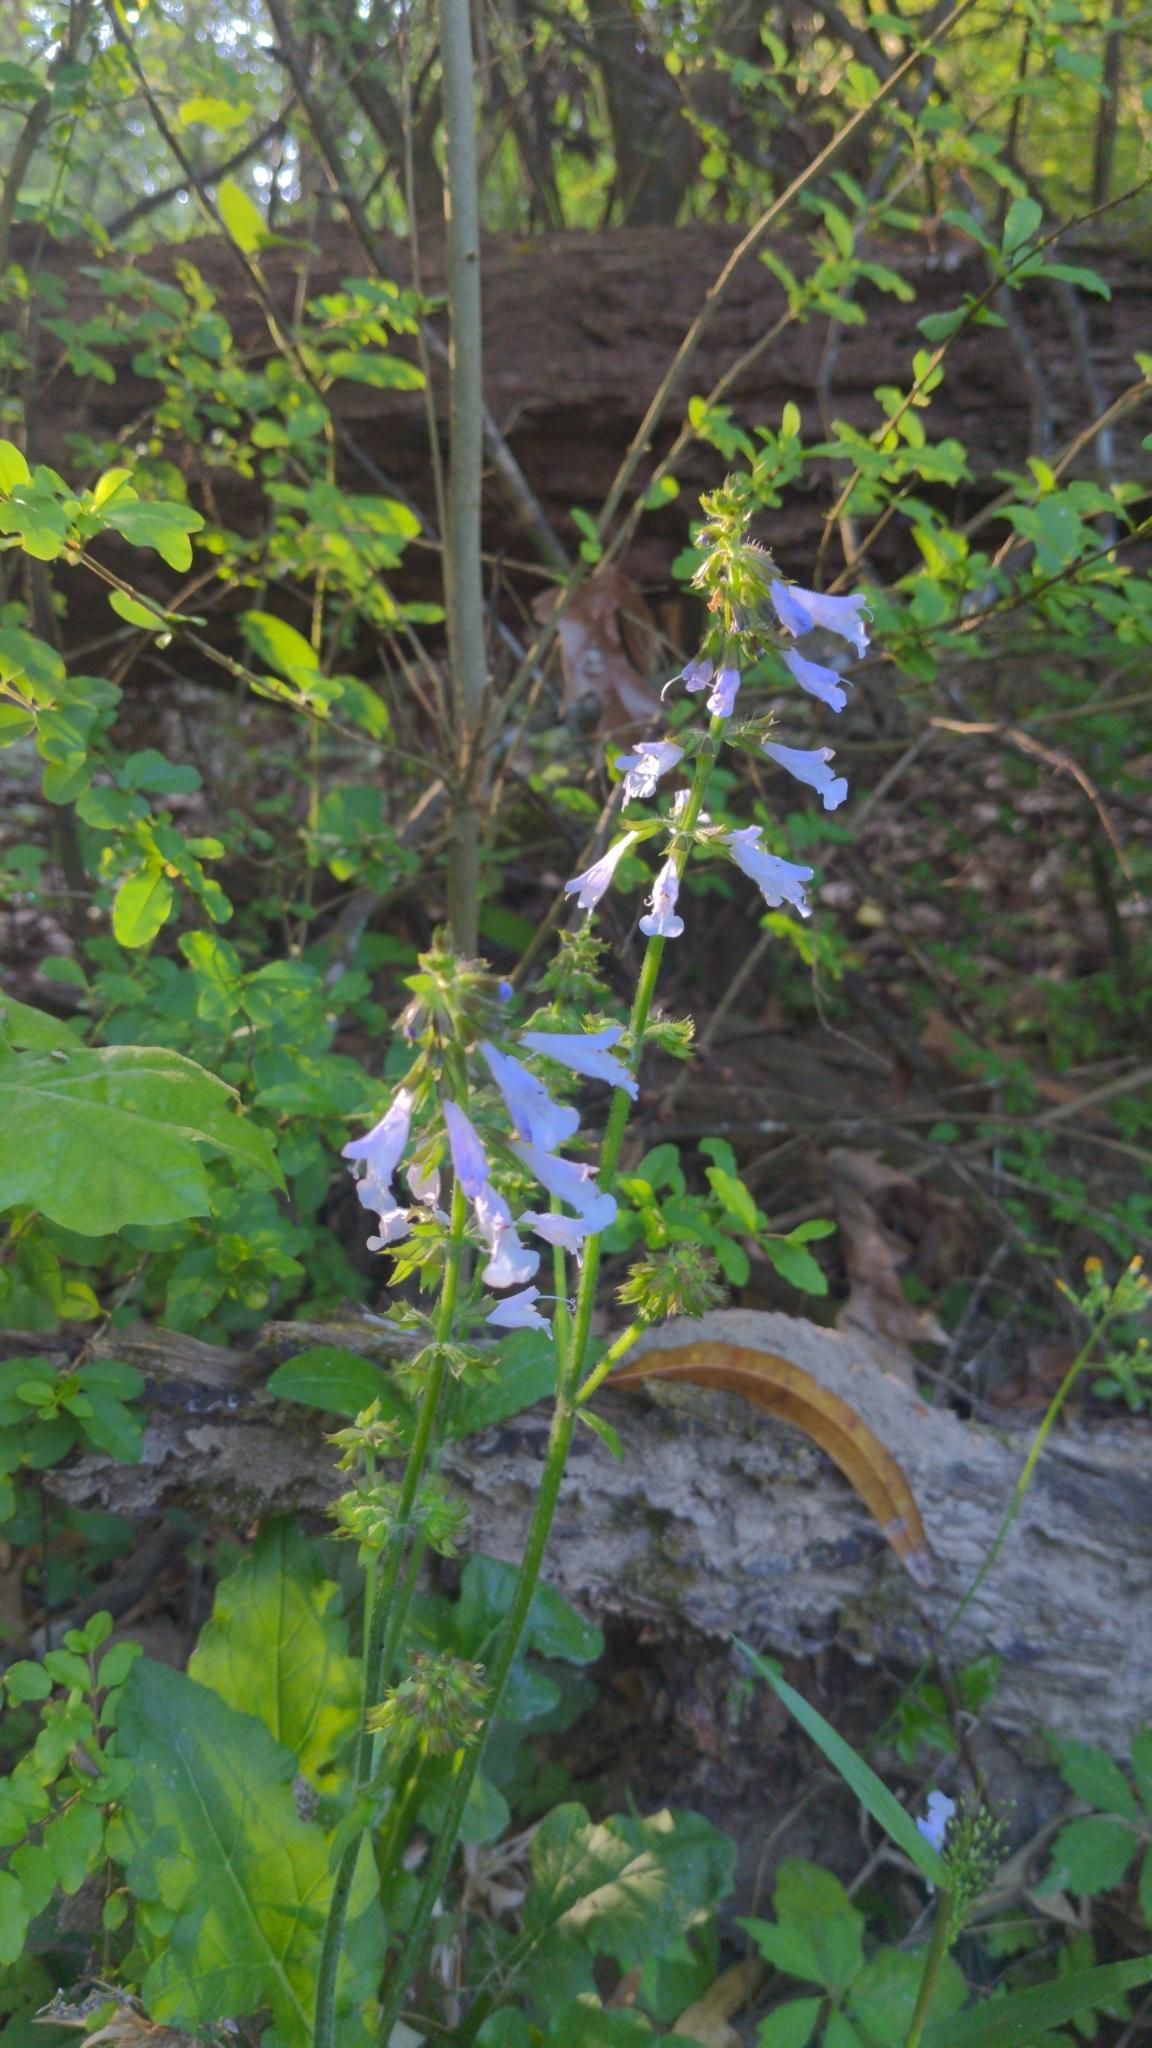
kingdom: Plantae
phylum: Tracheophyta
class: Magnoliopsida
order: Lamiales
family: Lamiaceae
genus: Salvia
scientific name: Salvia lyrata
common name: Cancerweed
